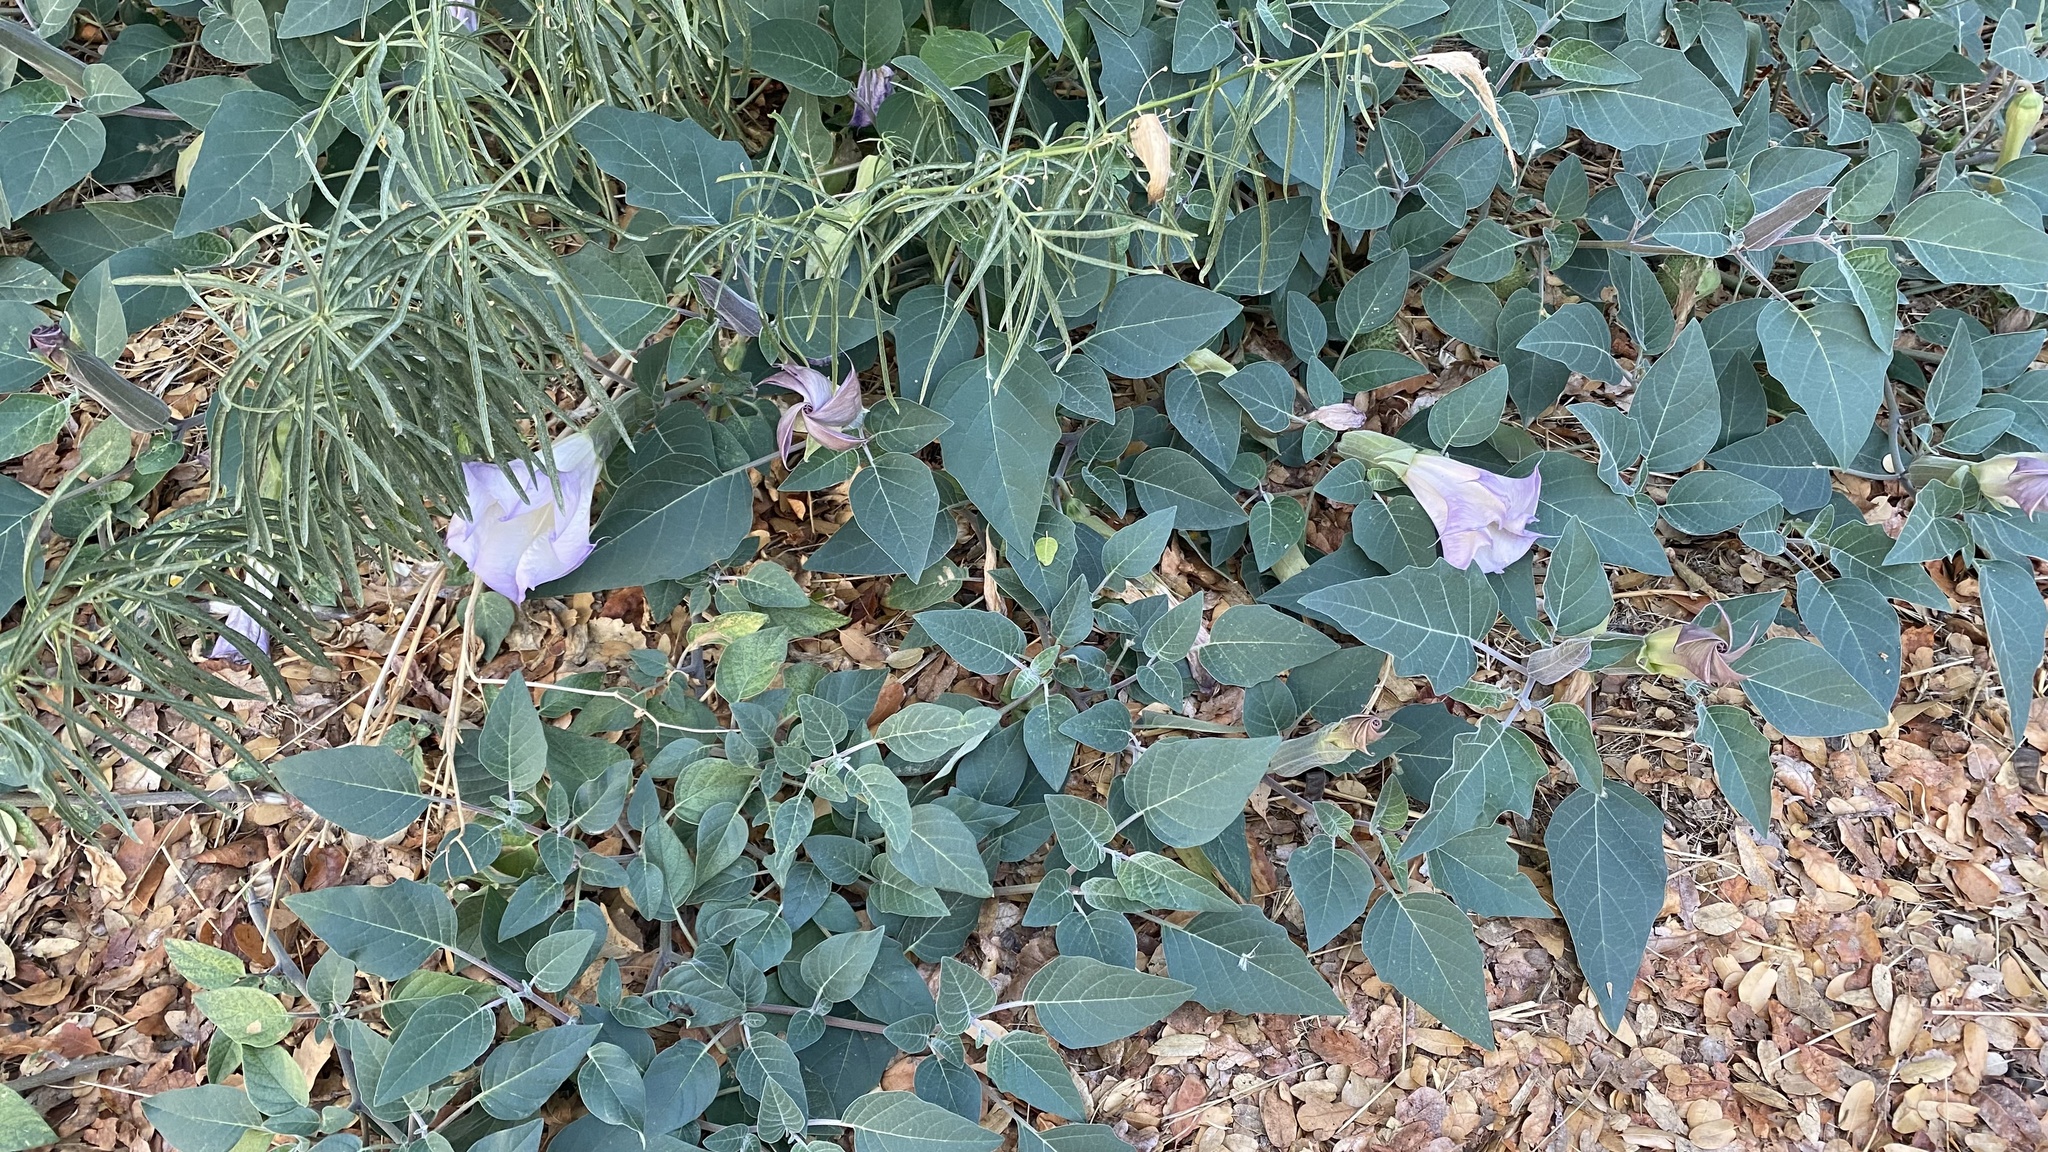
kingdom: Plantae
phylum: Tracheophyta
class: Magnoliopsida
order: Solanales
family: Solanaceae
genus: Datura
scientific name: Datura wrightii
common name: Sacred thorn-apple
